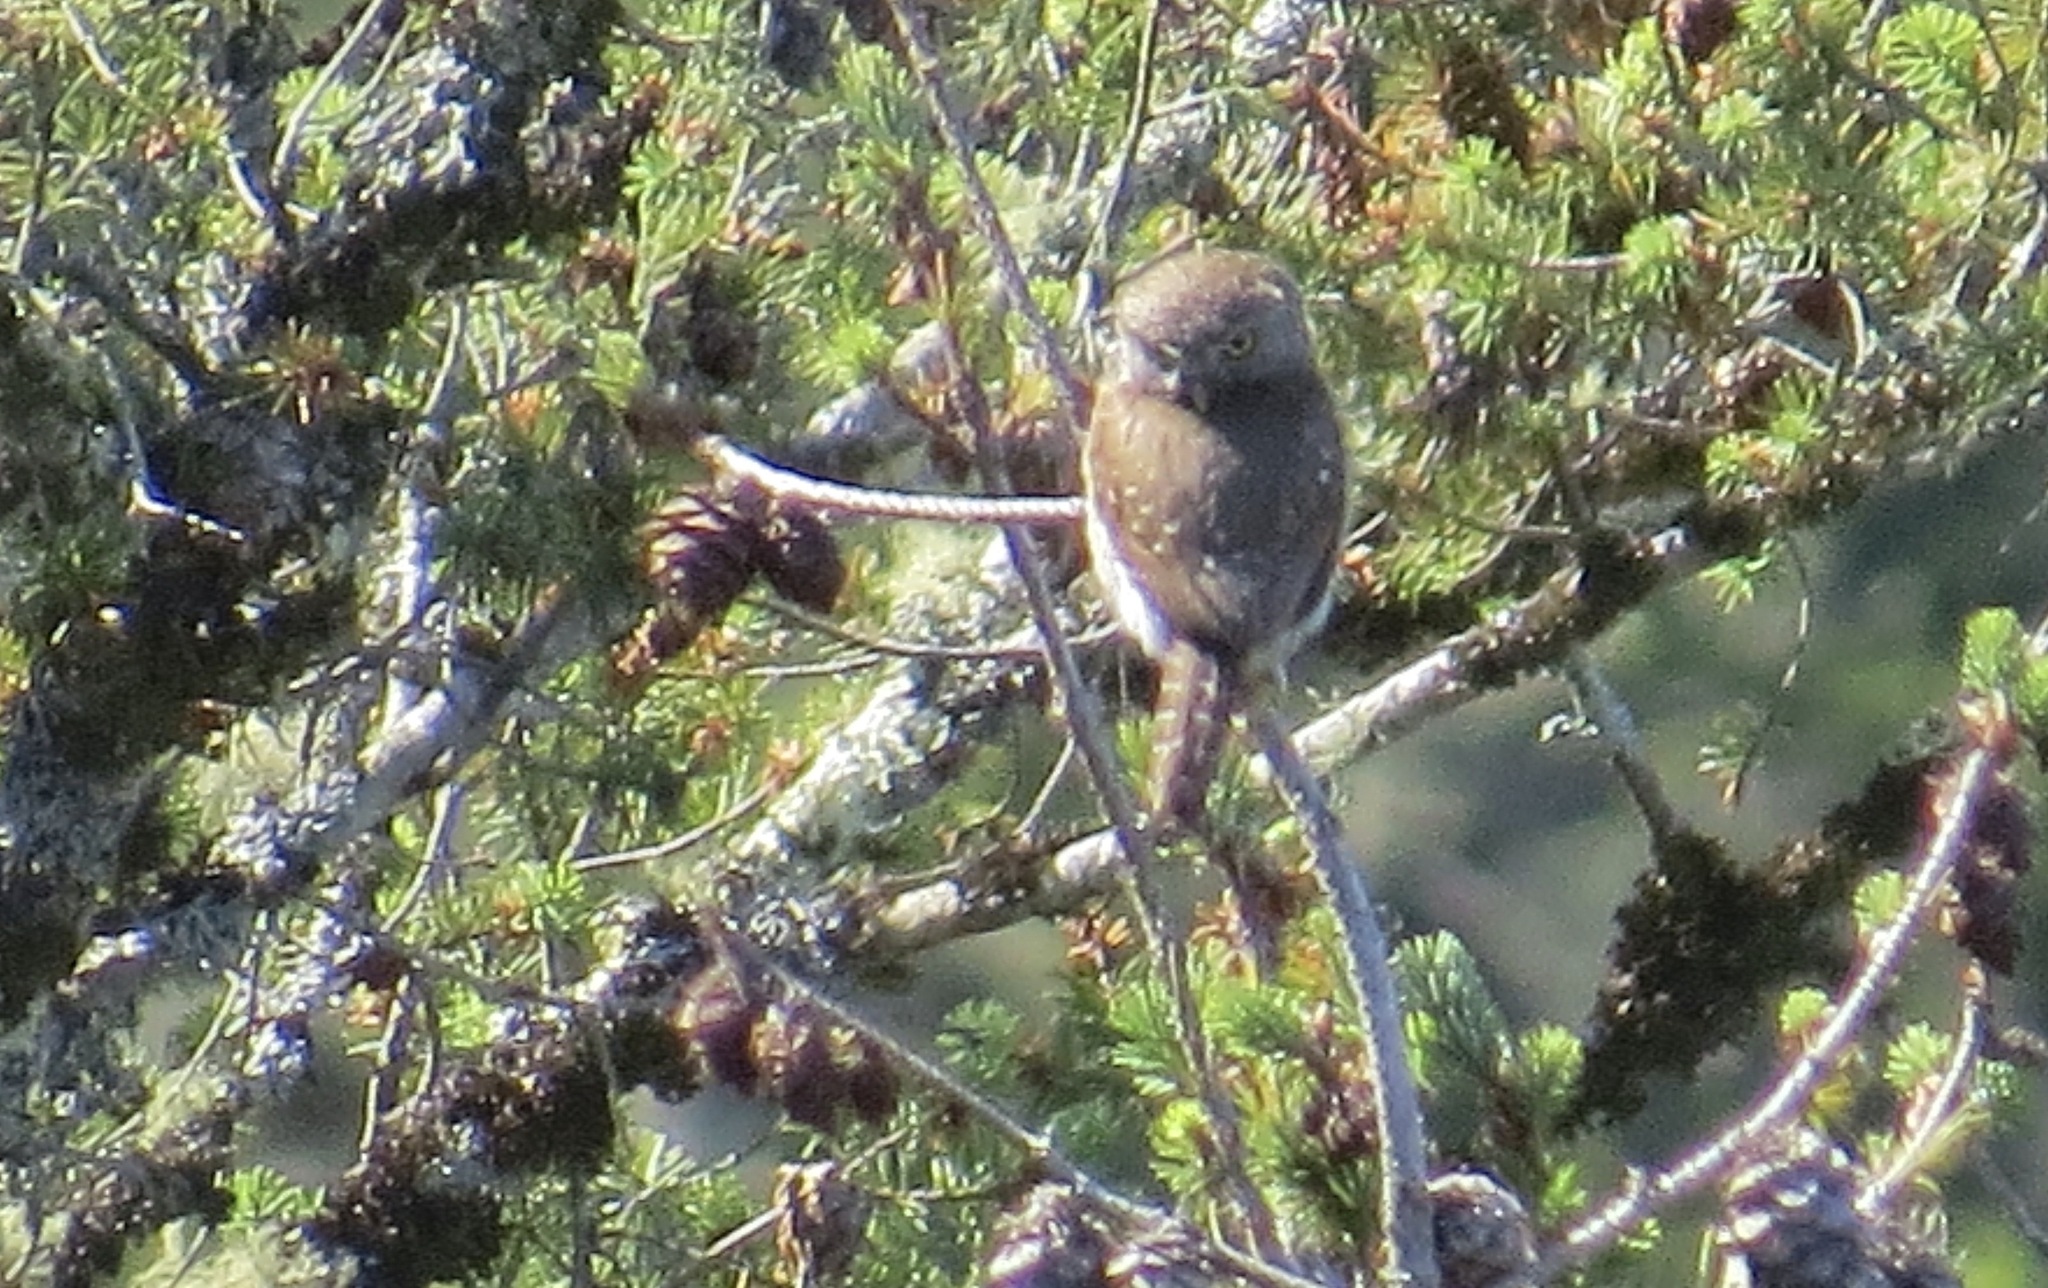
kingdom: Animalia
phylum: Chordata
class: Aves
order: Strigiformes
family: Strigidae
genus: Glaucidium
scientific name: Glaucidium gnoma
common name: Northern pygmy-owl
